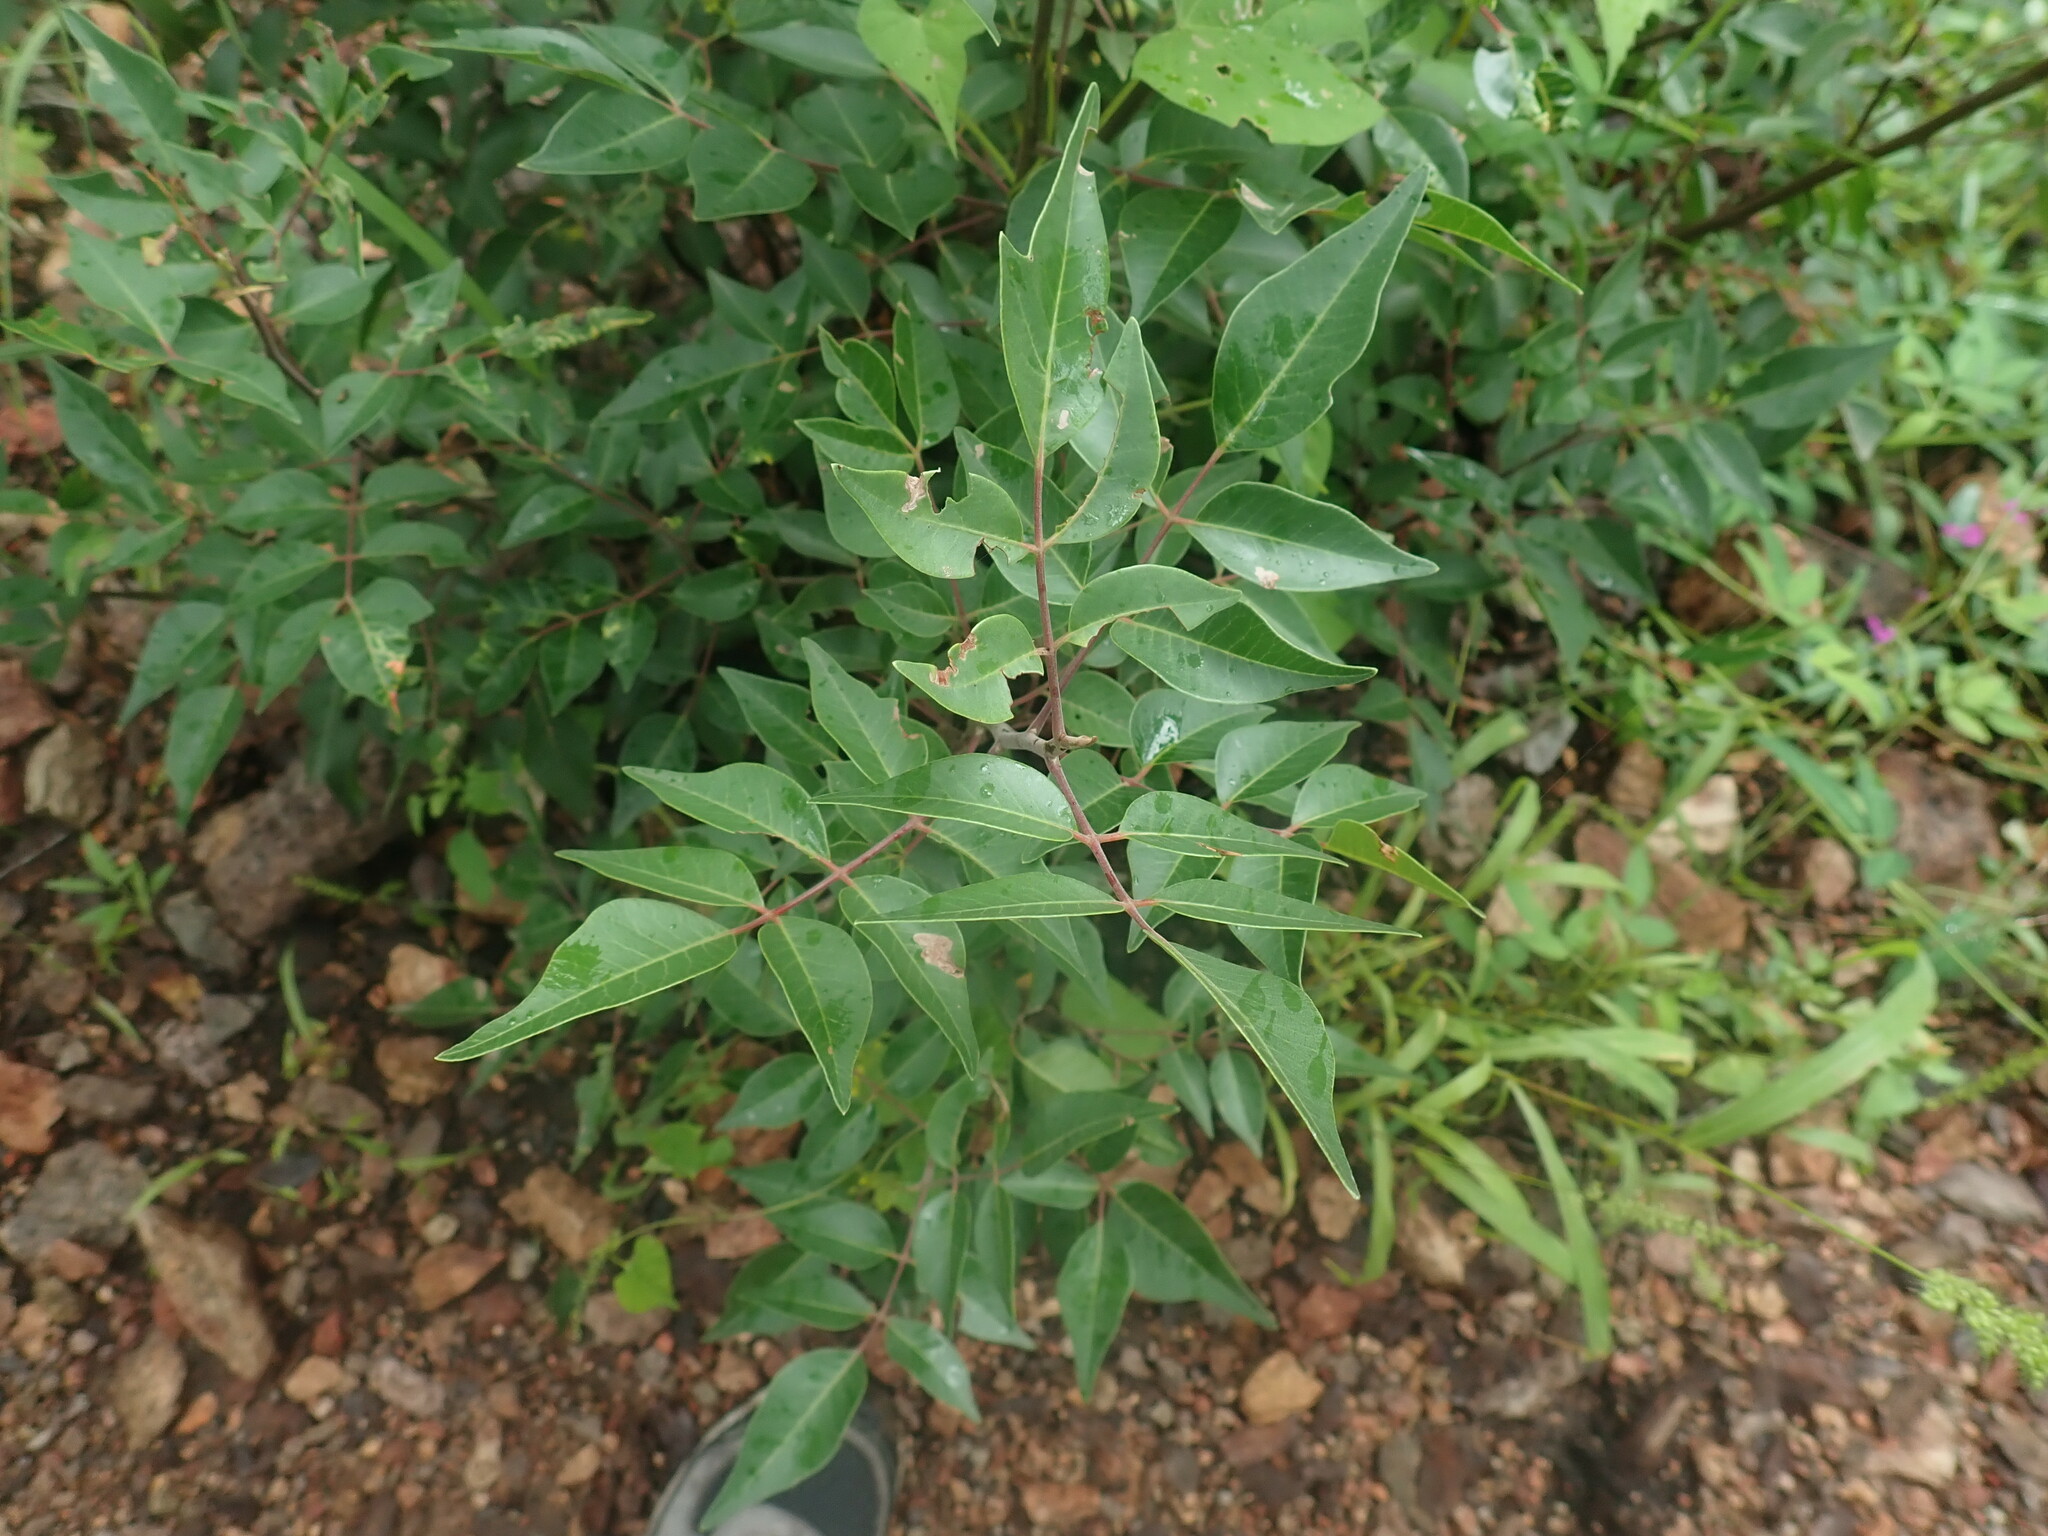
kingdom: Plantae
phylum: Tracheophyta
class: Magnoliopsida
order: Sapindales
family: Anacardiaceae
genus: Rhus
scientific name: Rhus virens
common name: Evergreen sumac
